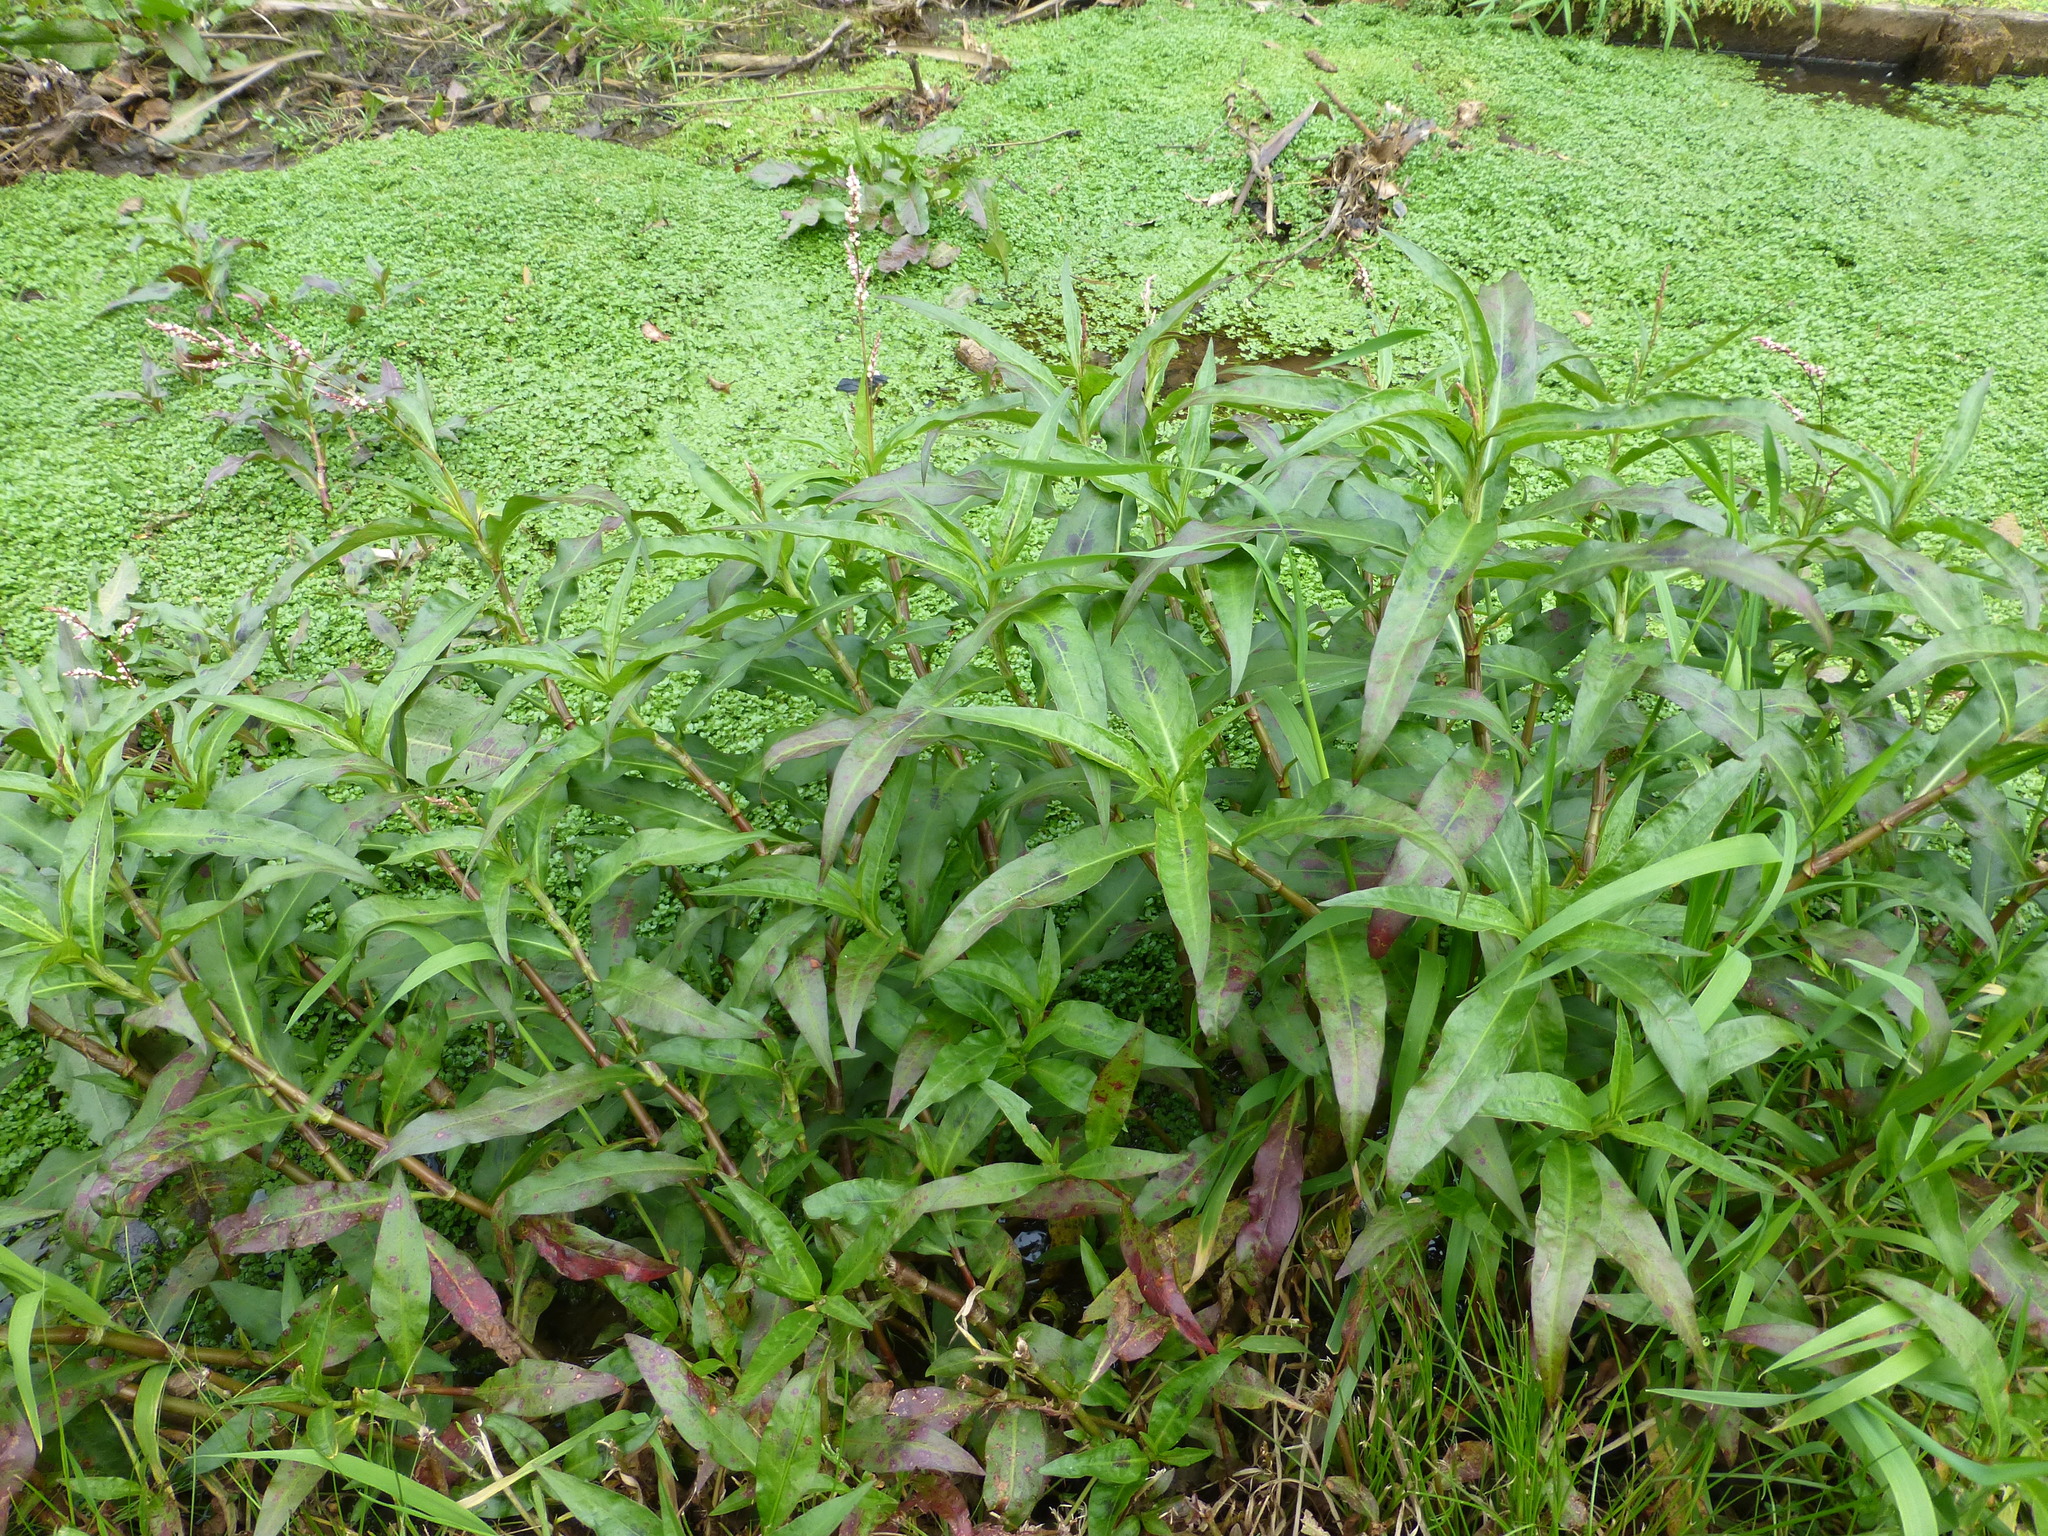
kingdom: Plantae
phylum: Tracheophyta
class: Magnoliopsida
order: Caryophyllales
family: Polygonaceae
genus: Persicaria
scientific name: Persicaria maculosa
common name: Redshank
